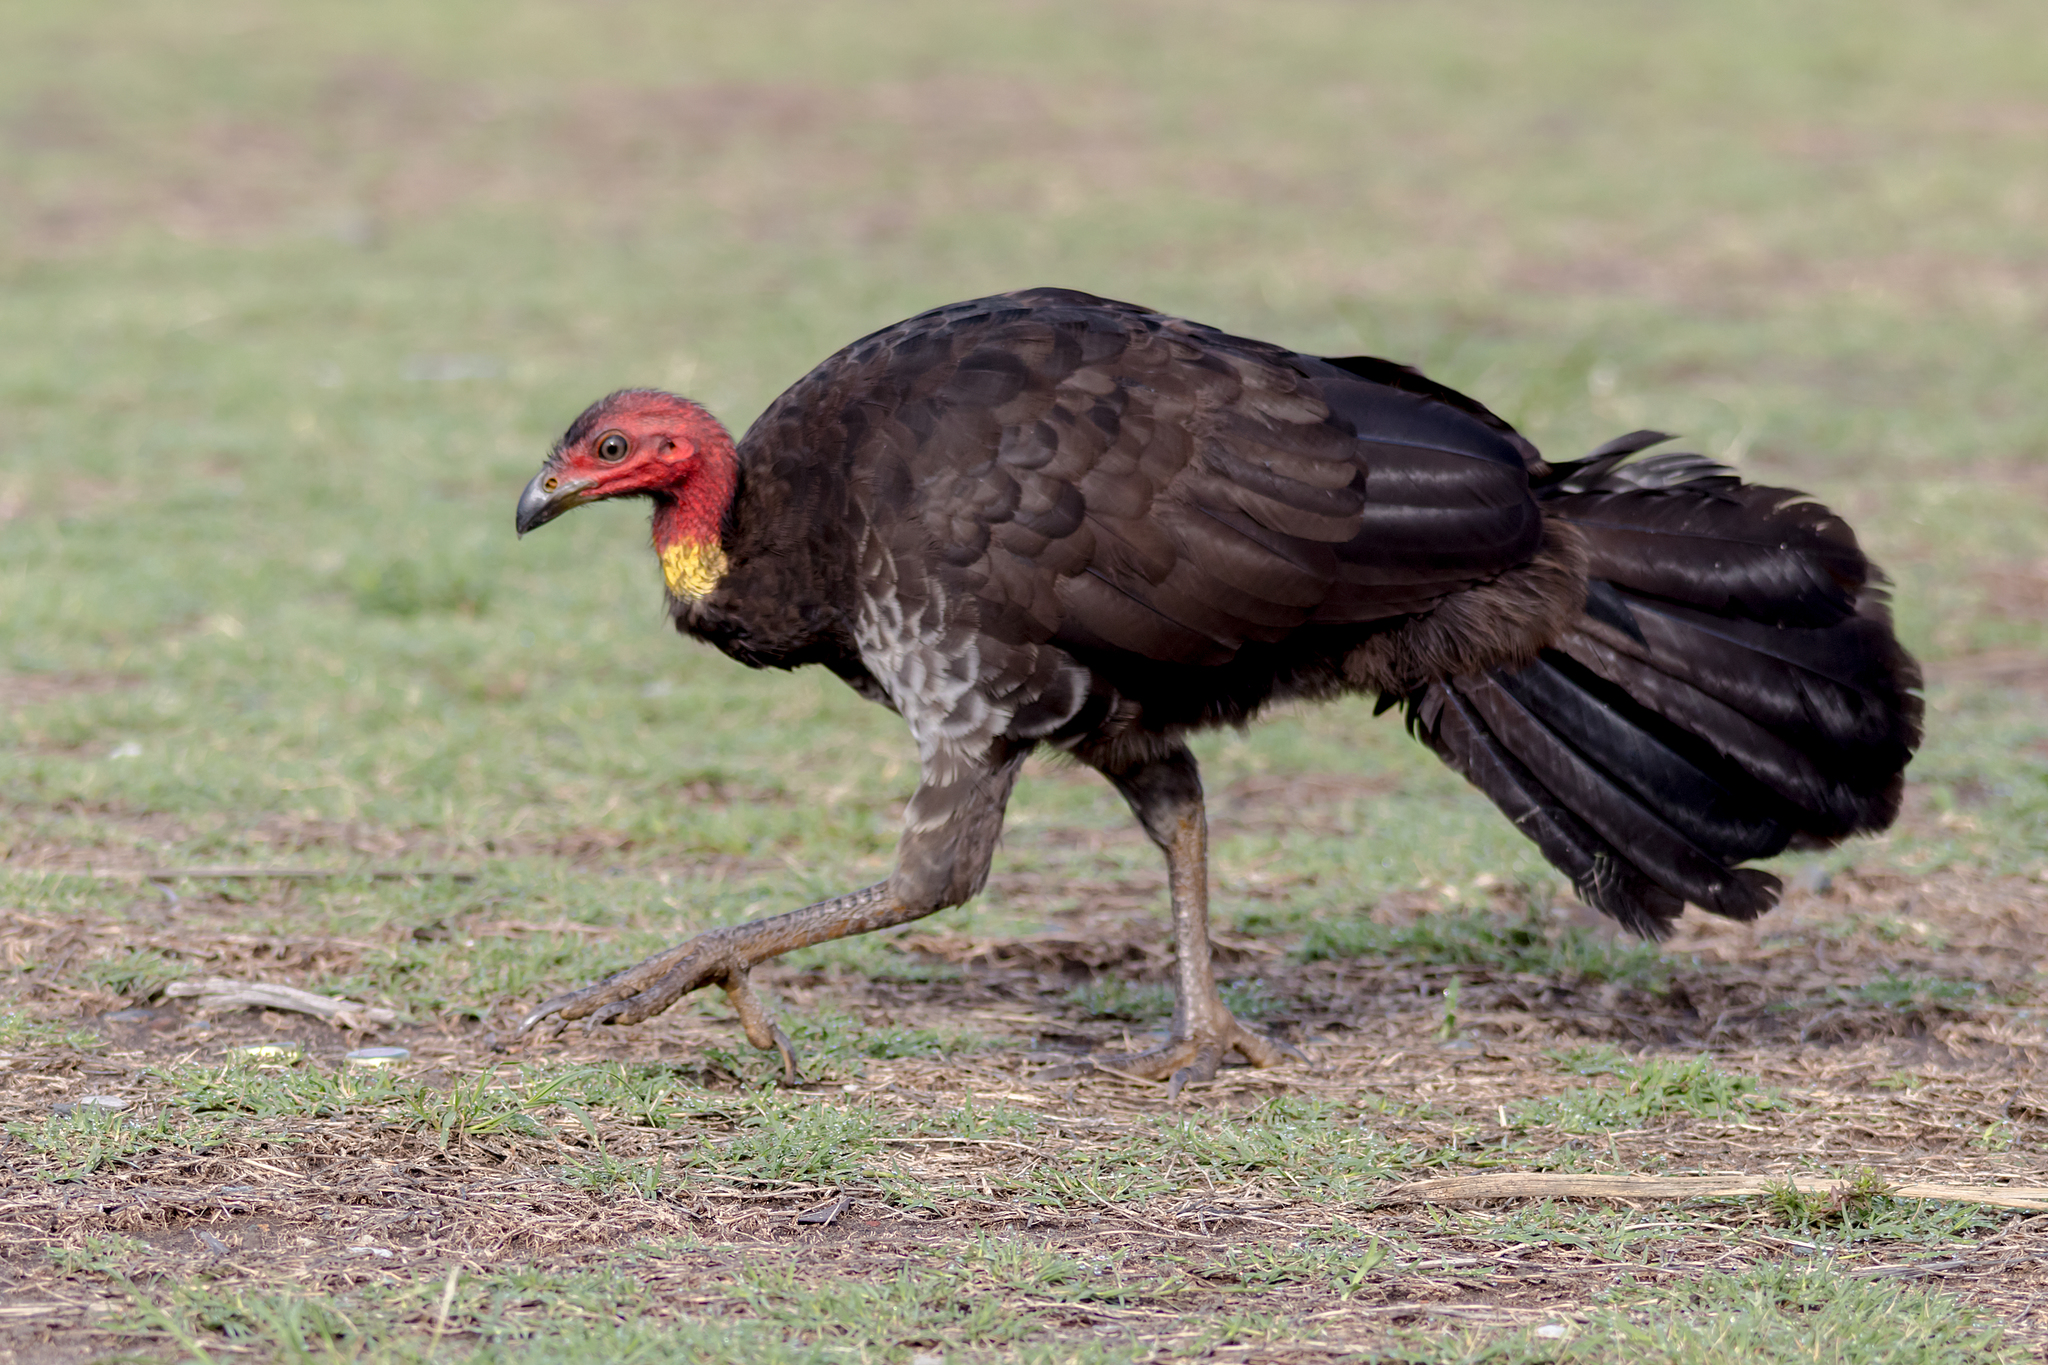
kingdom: Animalia
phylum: Chordata
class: Aves
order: Galliformes
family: Megapodiidae
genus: Alectura
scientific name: Alectura lathami
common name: Australian brushturkey
